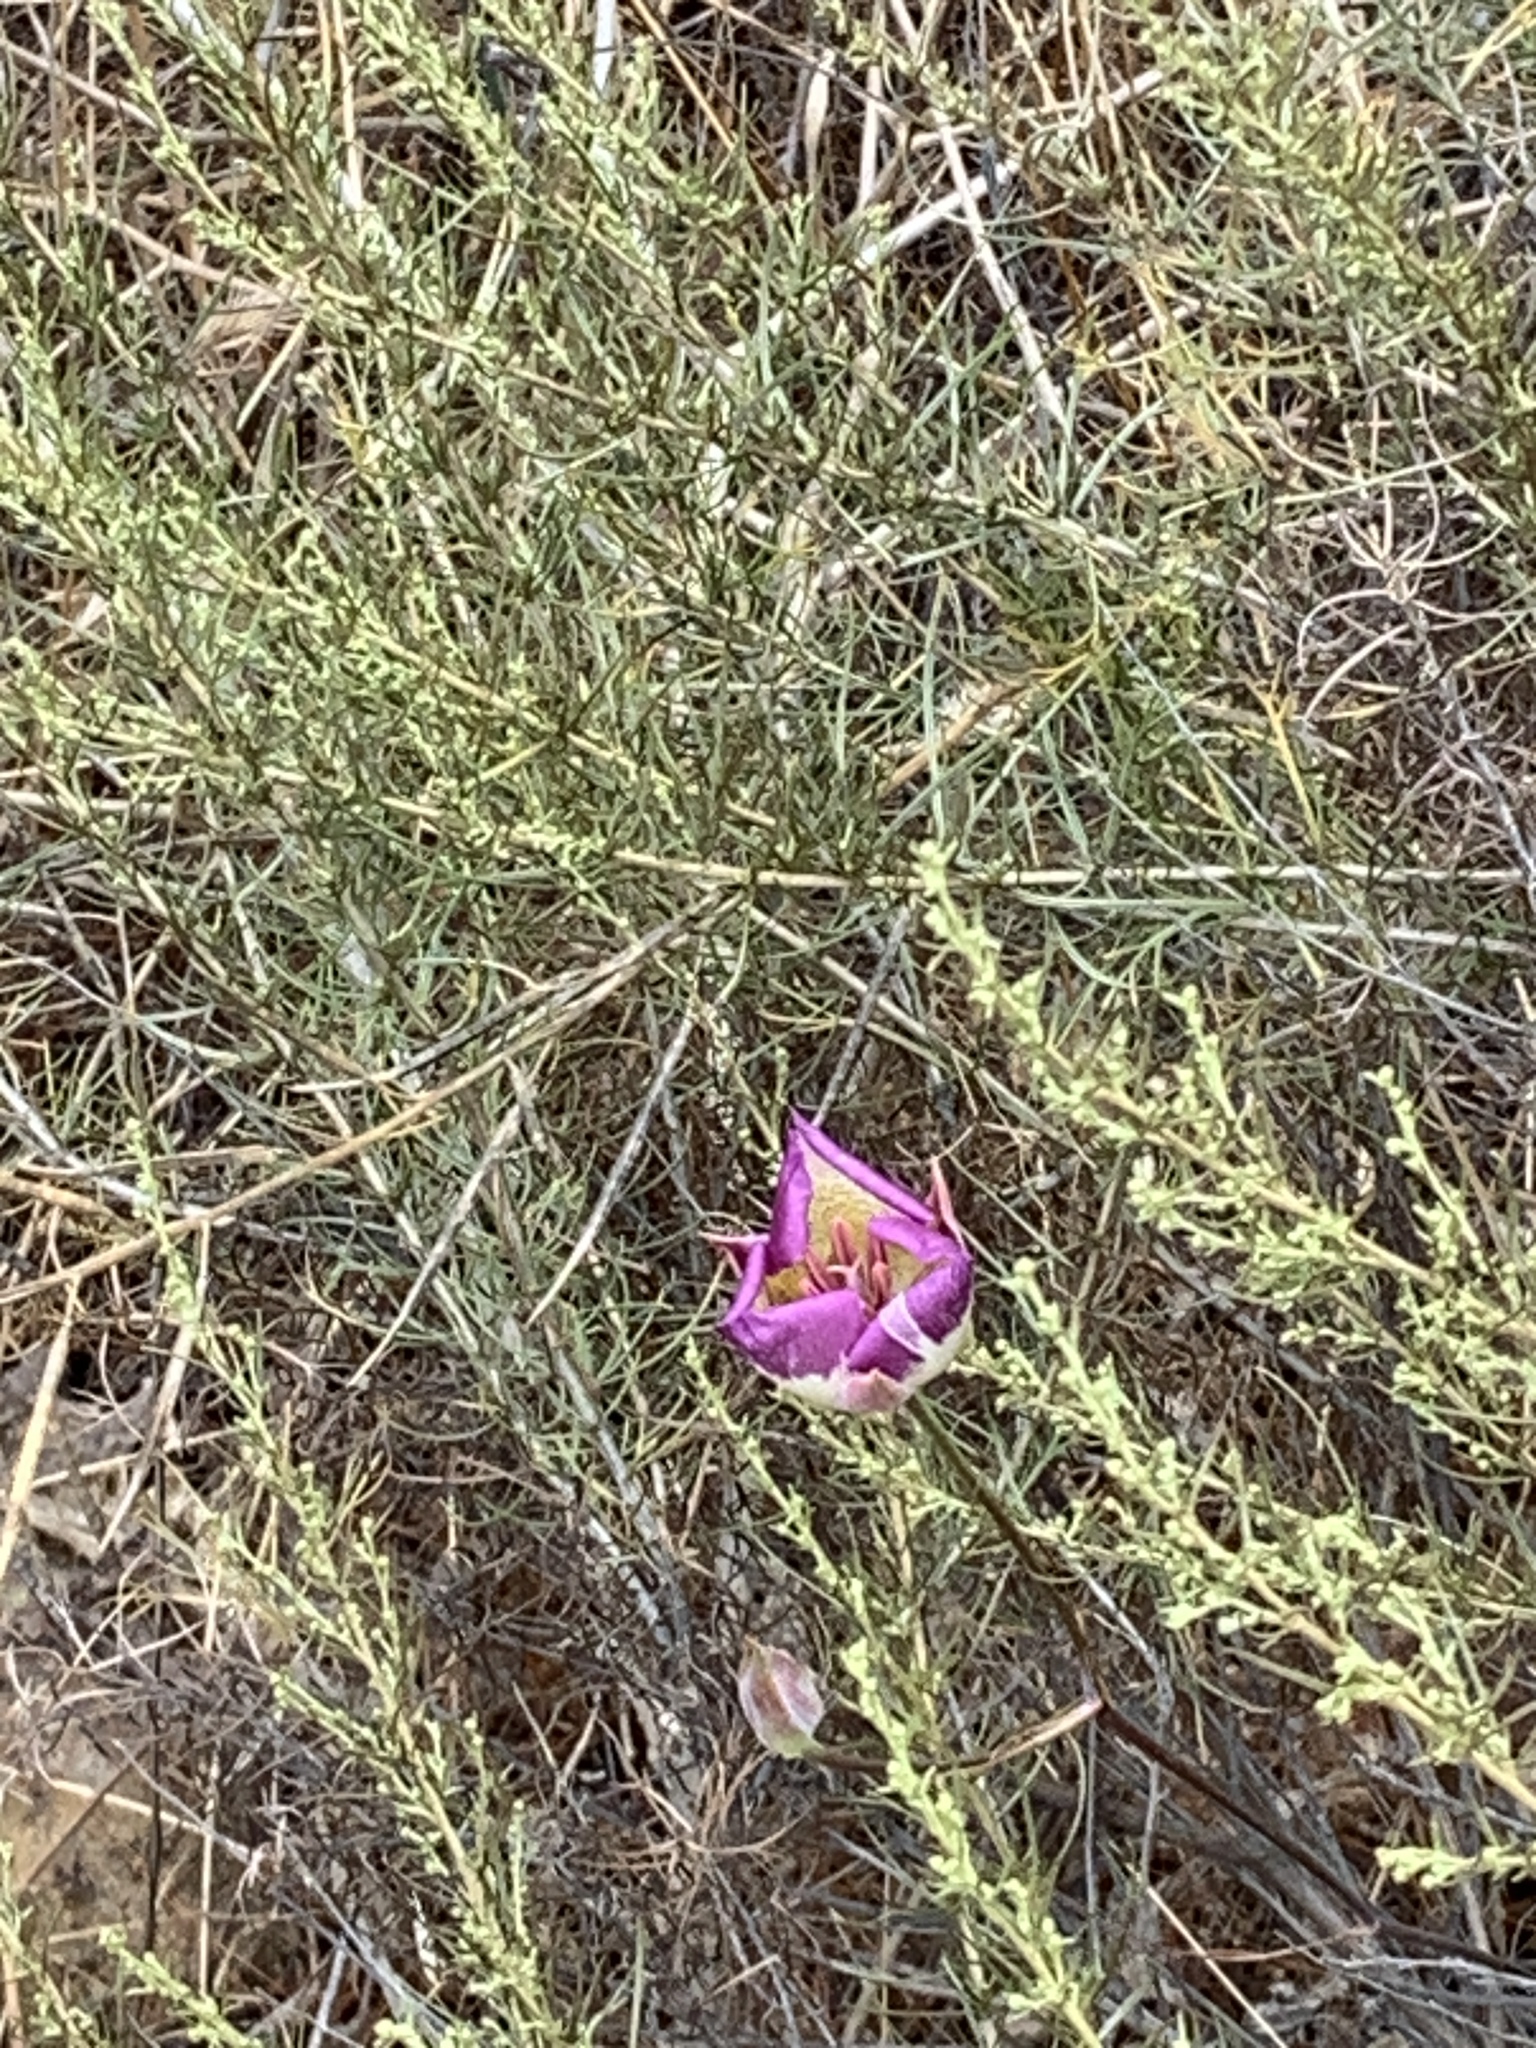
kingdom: Plantae
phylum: Tracheophyta
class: Liliopsida
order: Liliales
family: Liliaceae
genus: Calochortus
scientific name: Calochortus plummerae
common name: Plummer's mariposa-lily
